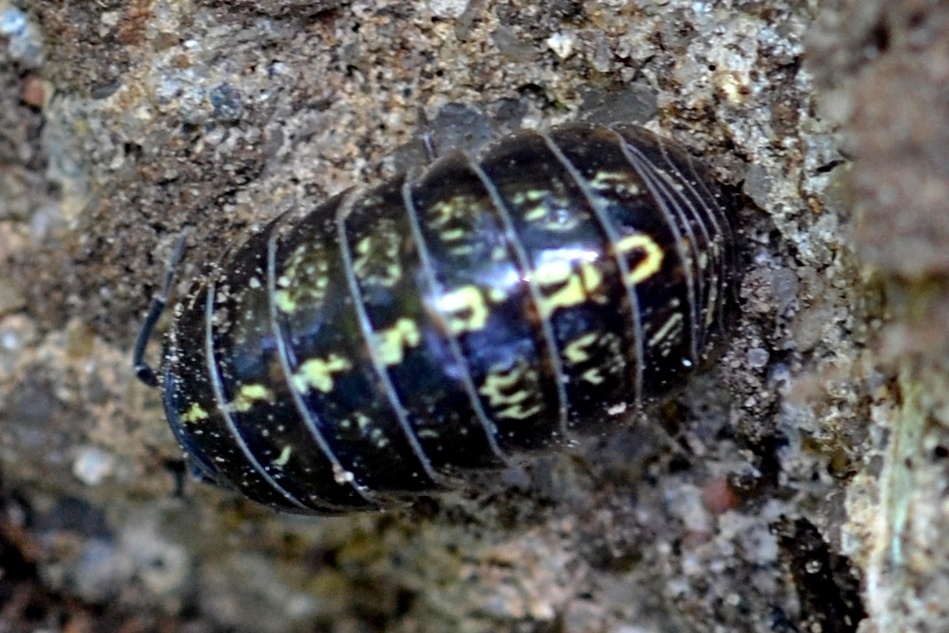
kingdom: Animalia
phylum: Arthropoda
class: Malacostraca
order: Isopoda
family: Armadillidiidae
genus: Armadillidium
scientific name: Armadillidium vulgare
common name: Common pill woodlouse
